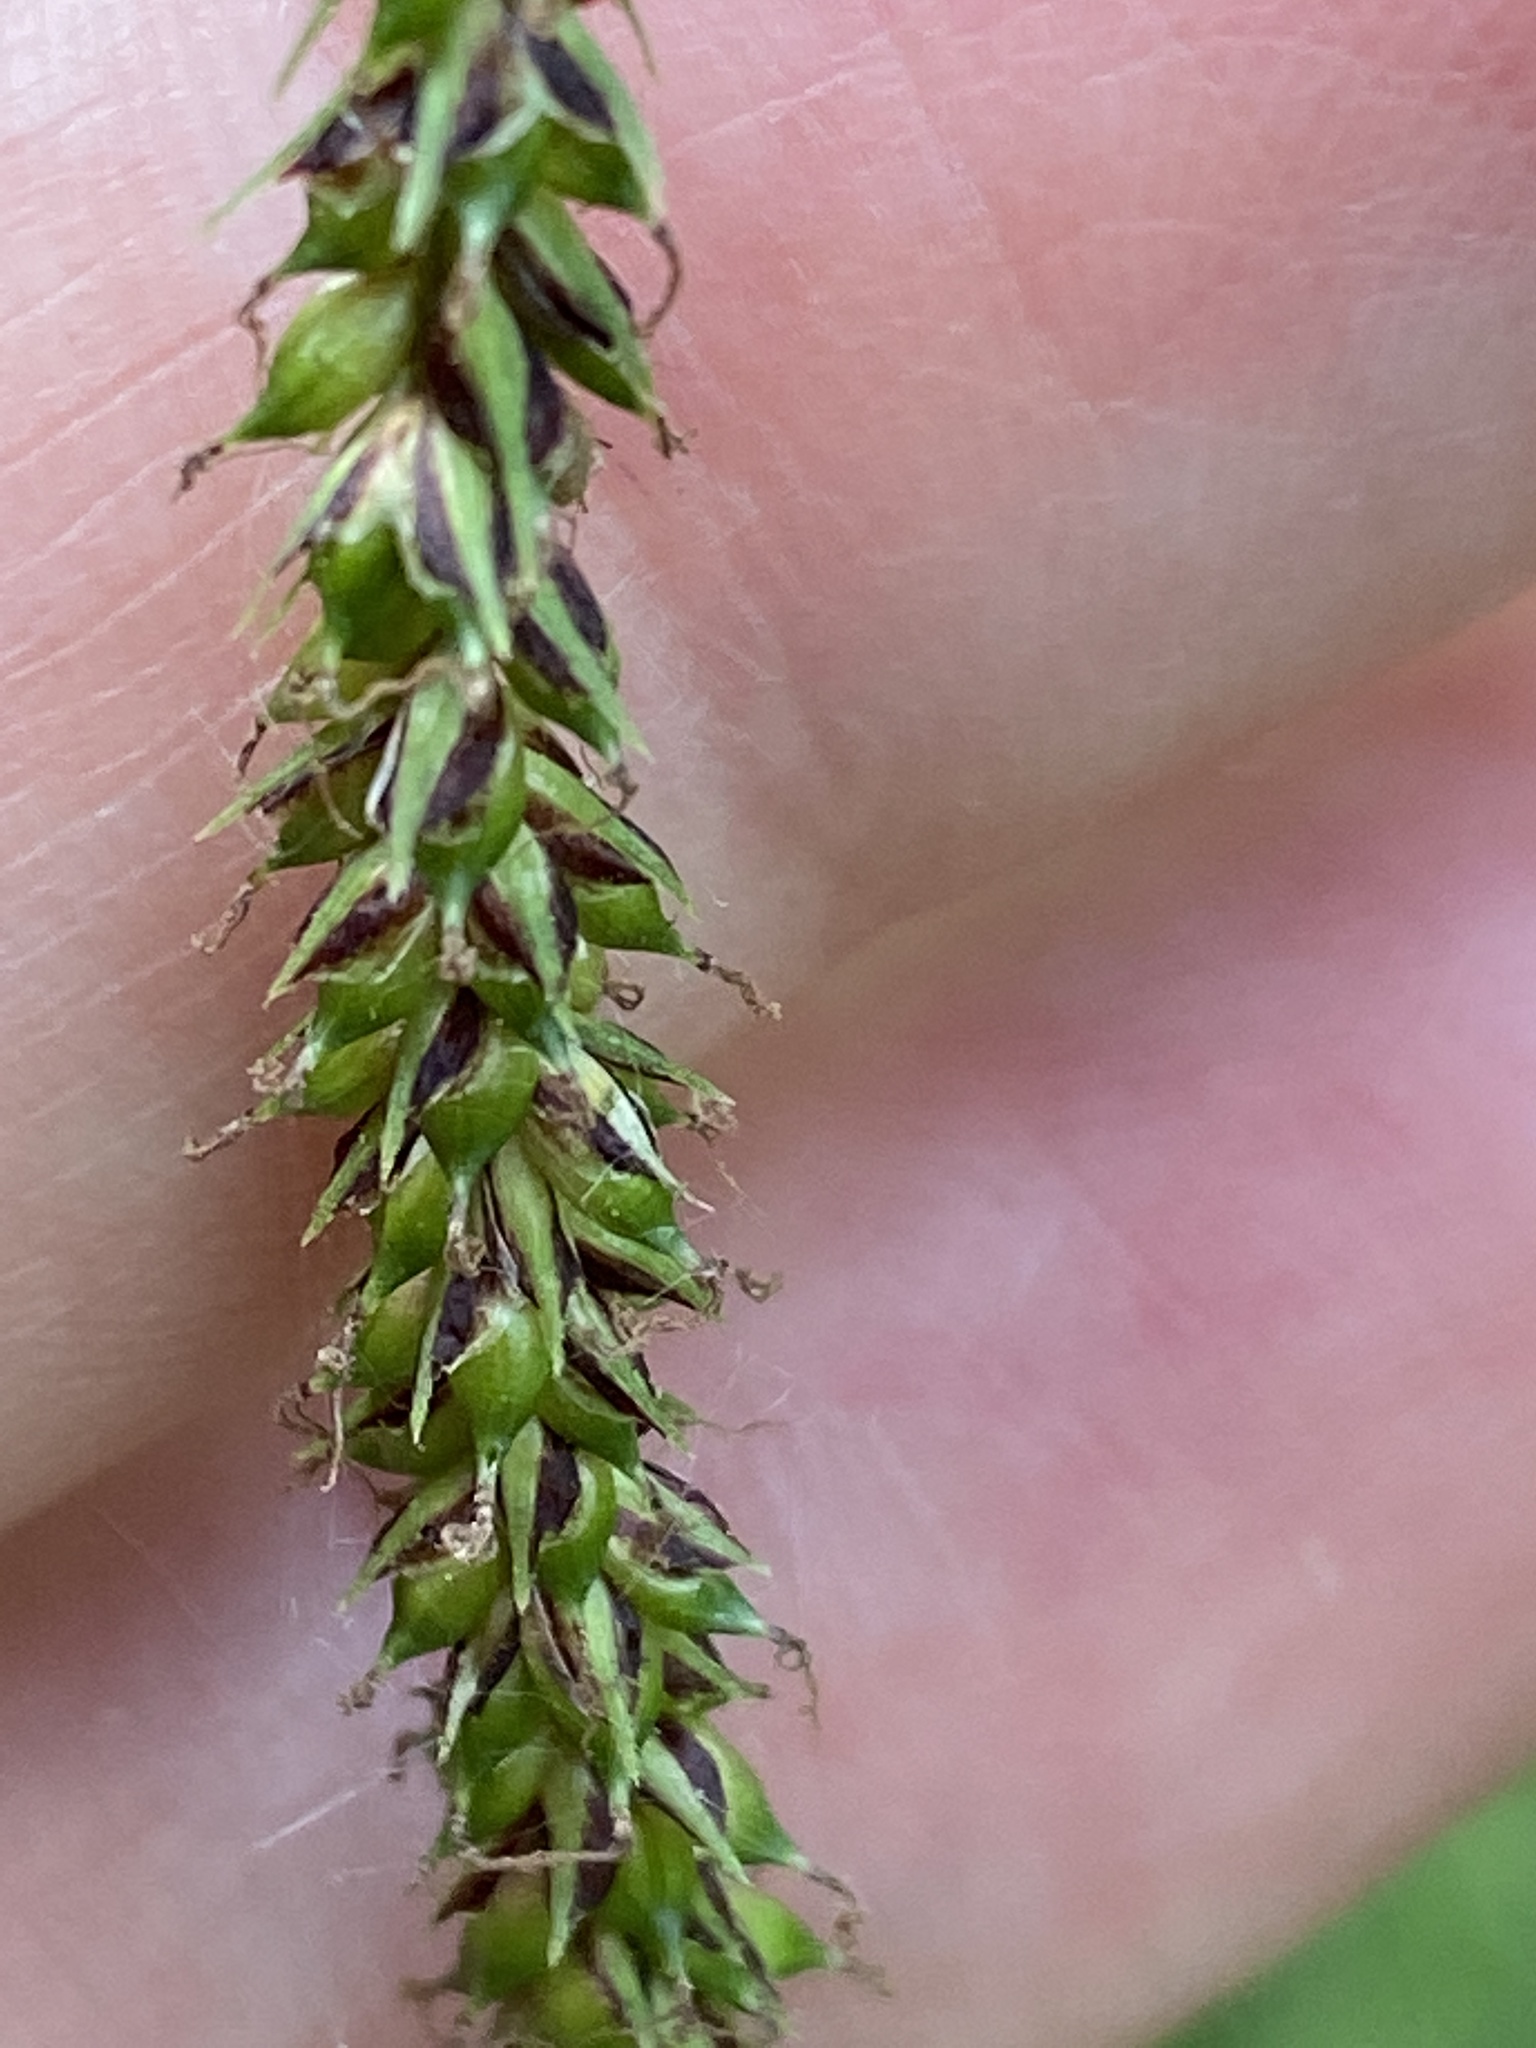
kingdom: Plantae
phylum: Tracheophyta
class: Liliopsida
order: Poales
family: Cyperaceae
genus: Carex
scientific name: Carex pendula
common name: Pendulous sedge
